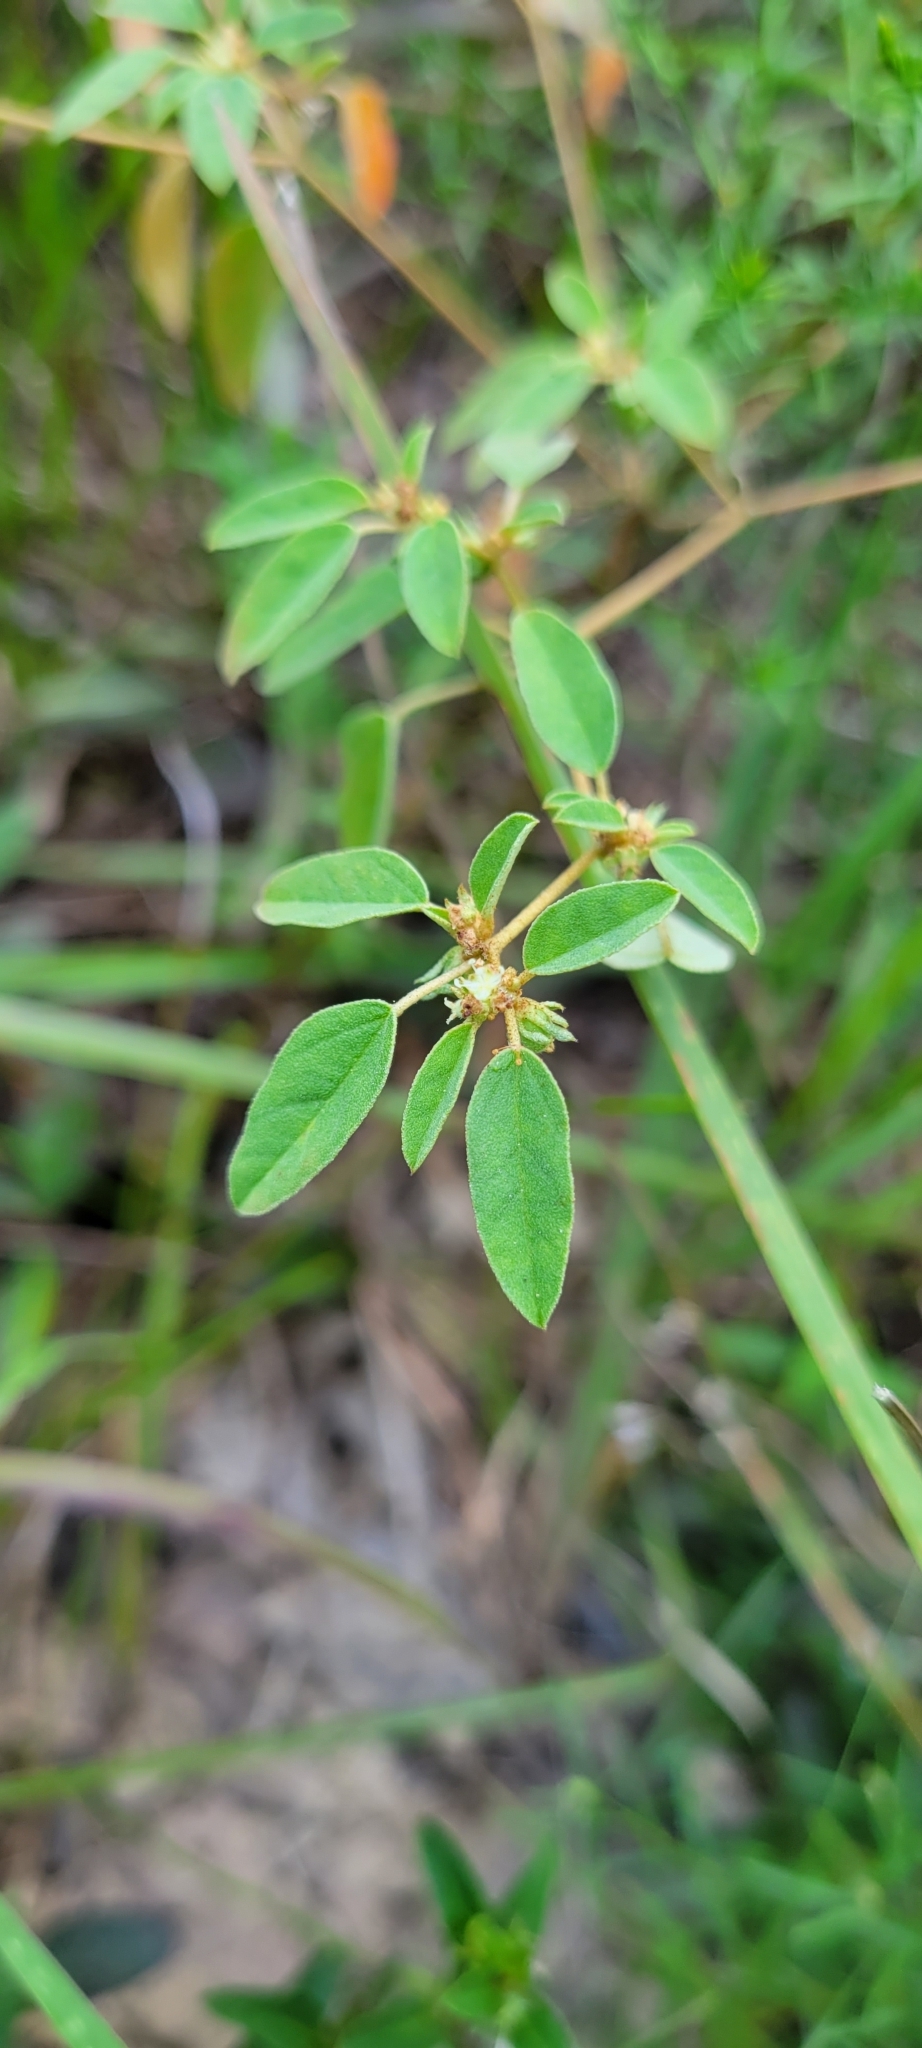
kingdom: Plantae
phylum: Tracheophyta
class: Magnoliopsida
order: Malpighiales
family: Euphorbiaceae
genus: Croton
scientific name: Croton monanthogynus
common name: One-seed croton
